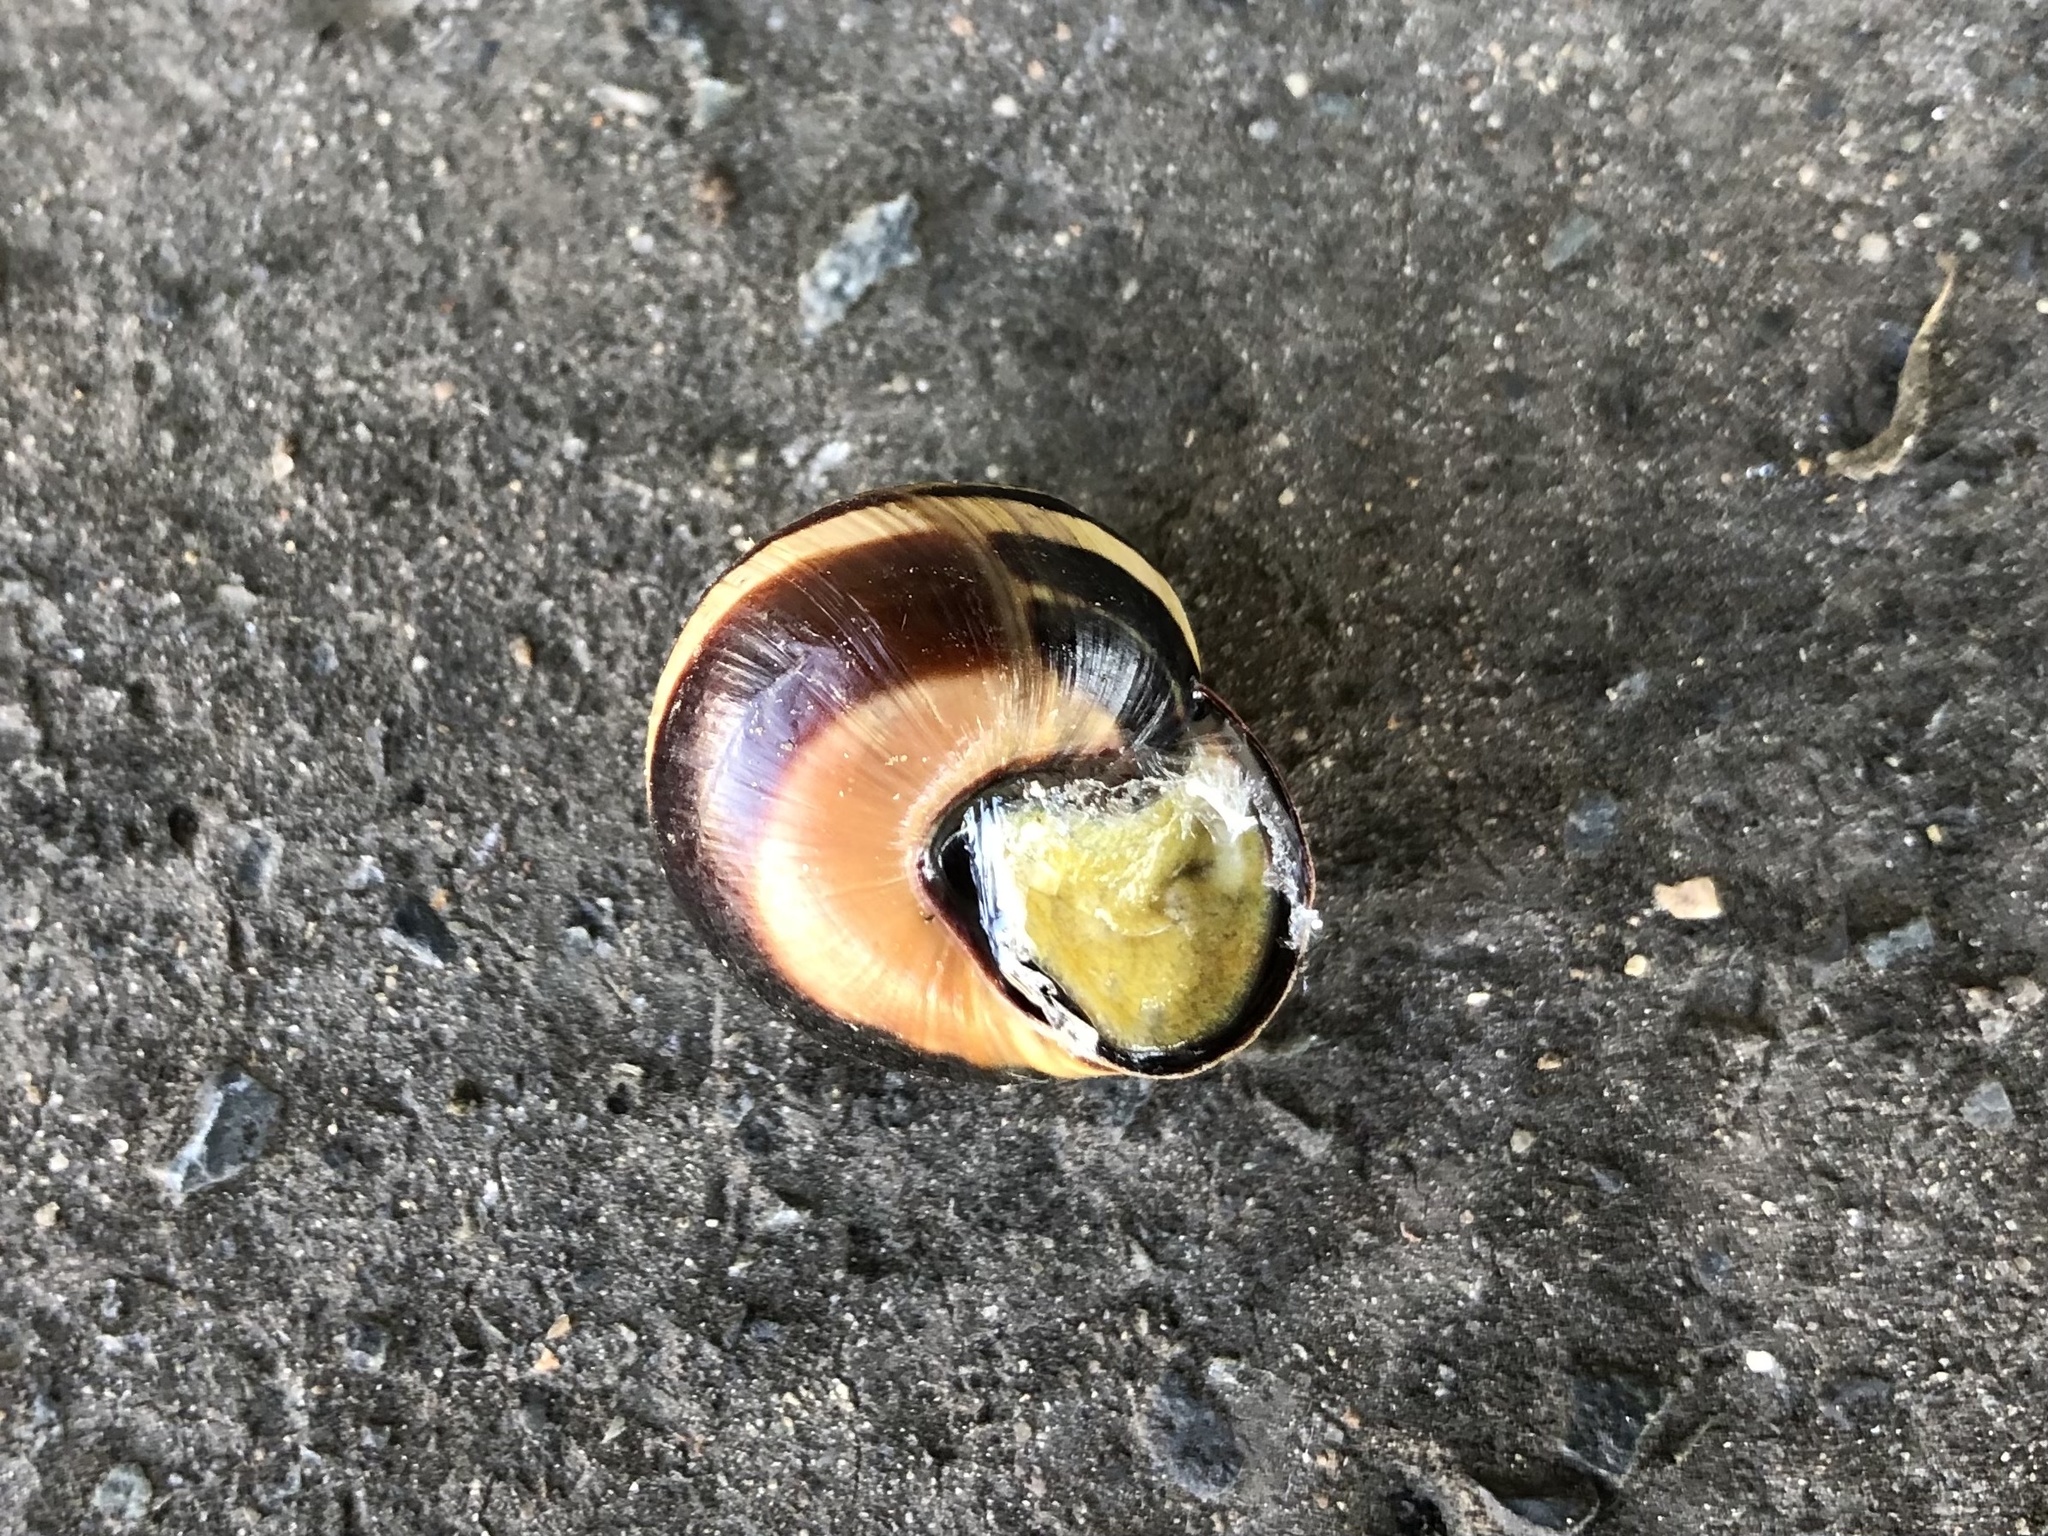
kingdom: Animalia
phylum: Mollusca
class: Gastropoda
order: Stylommatophora
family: Helicidae
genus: Cepaea
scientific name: Cepaea nemoralis
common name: Grovesnail
